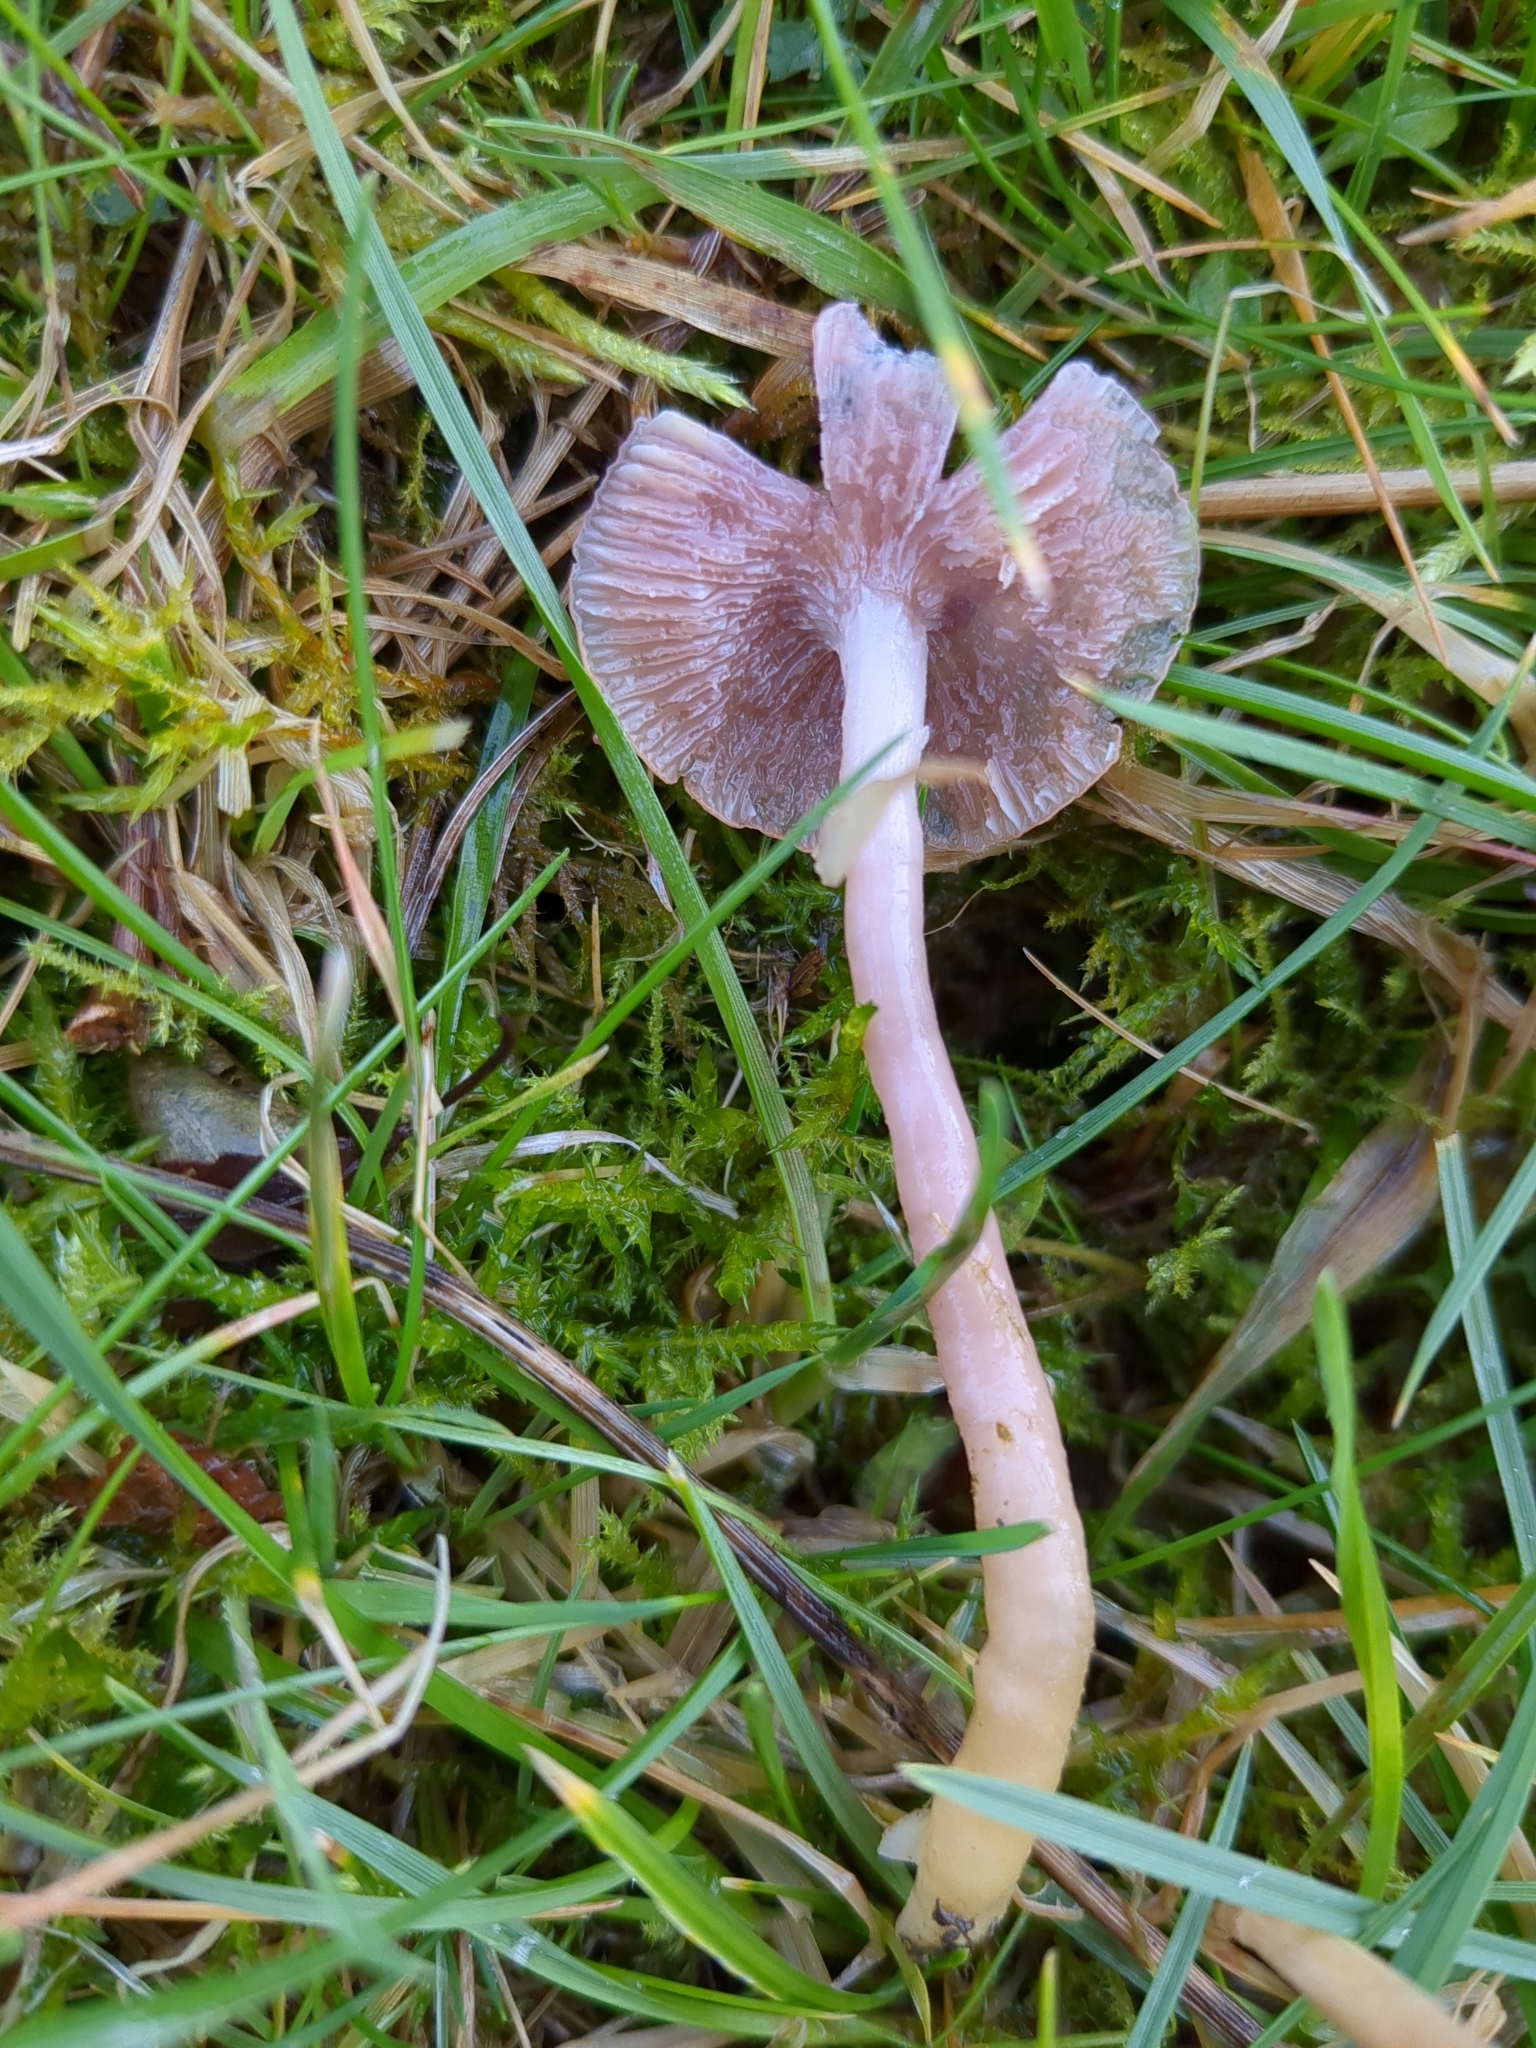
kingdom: Fungi
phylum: Basidiomycota
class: Agaricomycetes
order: Agaricales
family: Hygrophoraceae
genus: Gliophorus
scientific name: Gliophorus reginae
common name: Jubilee waxcap
